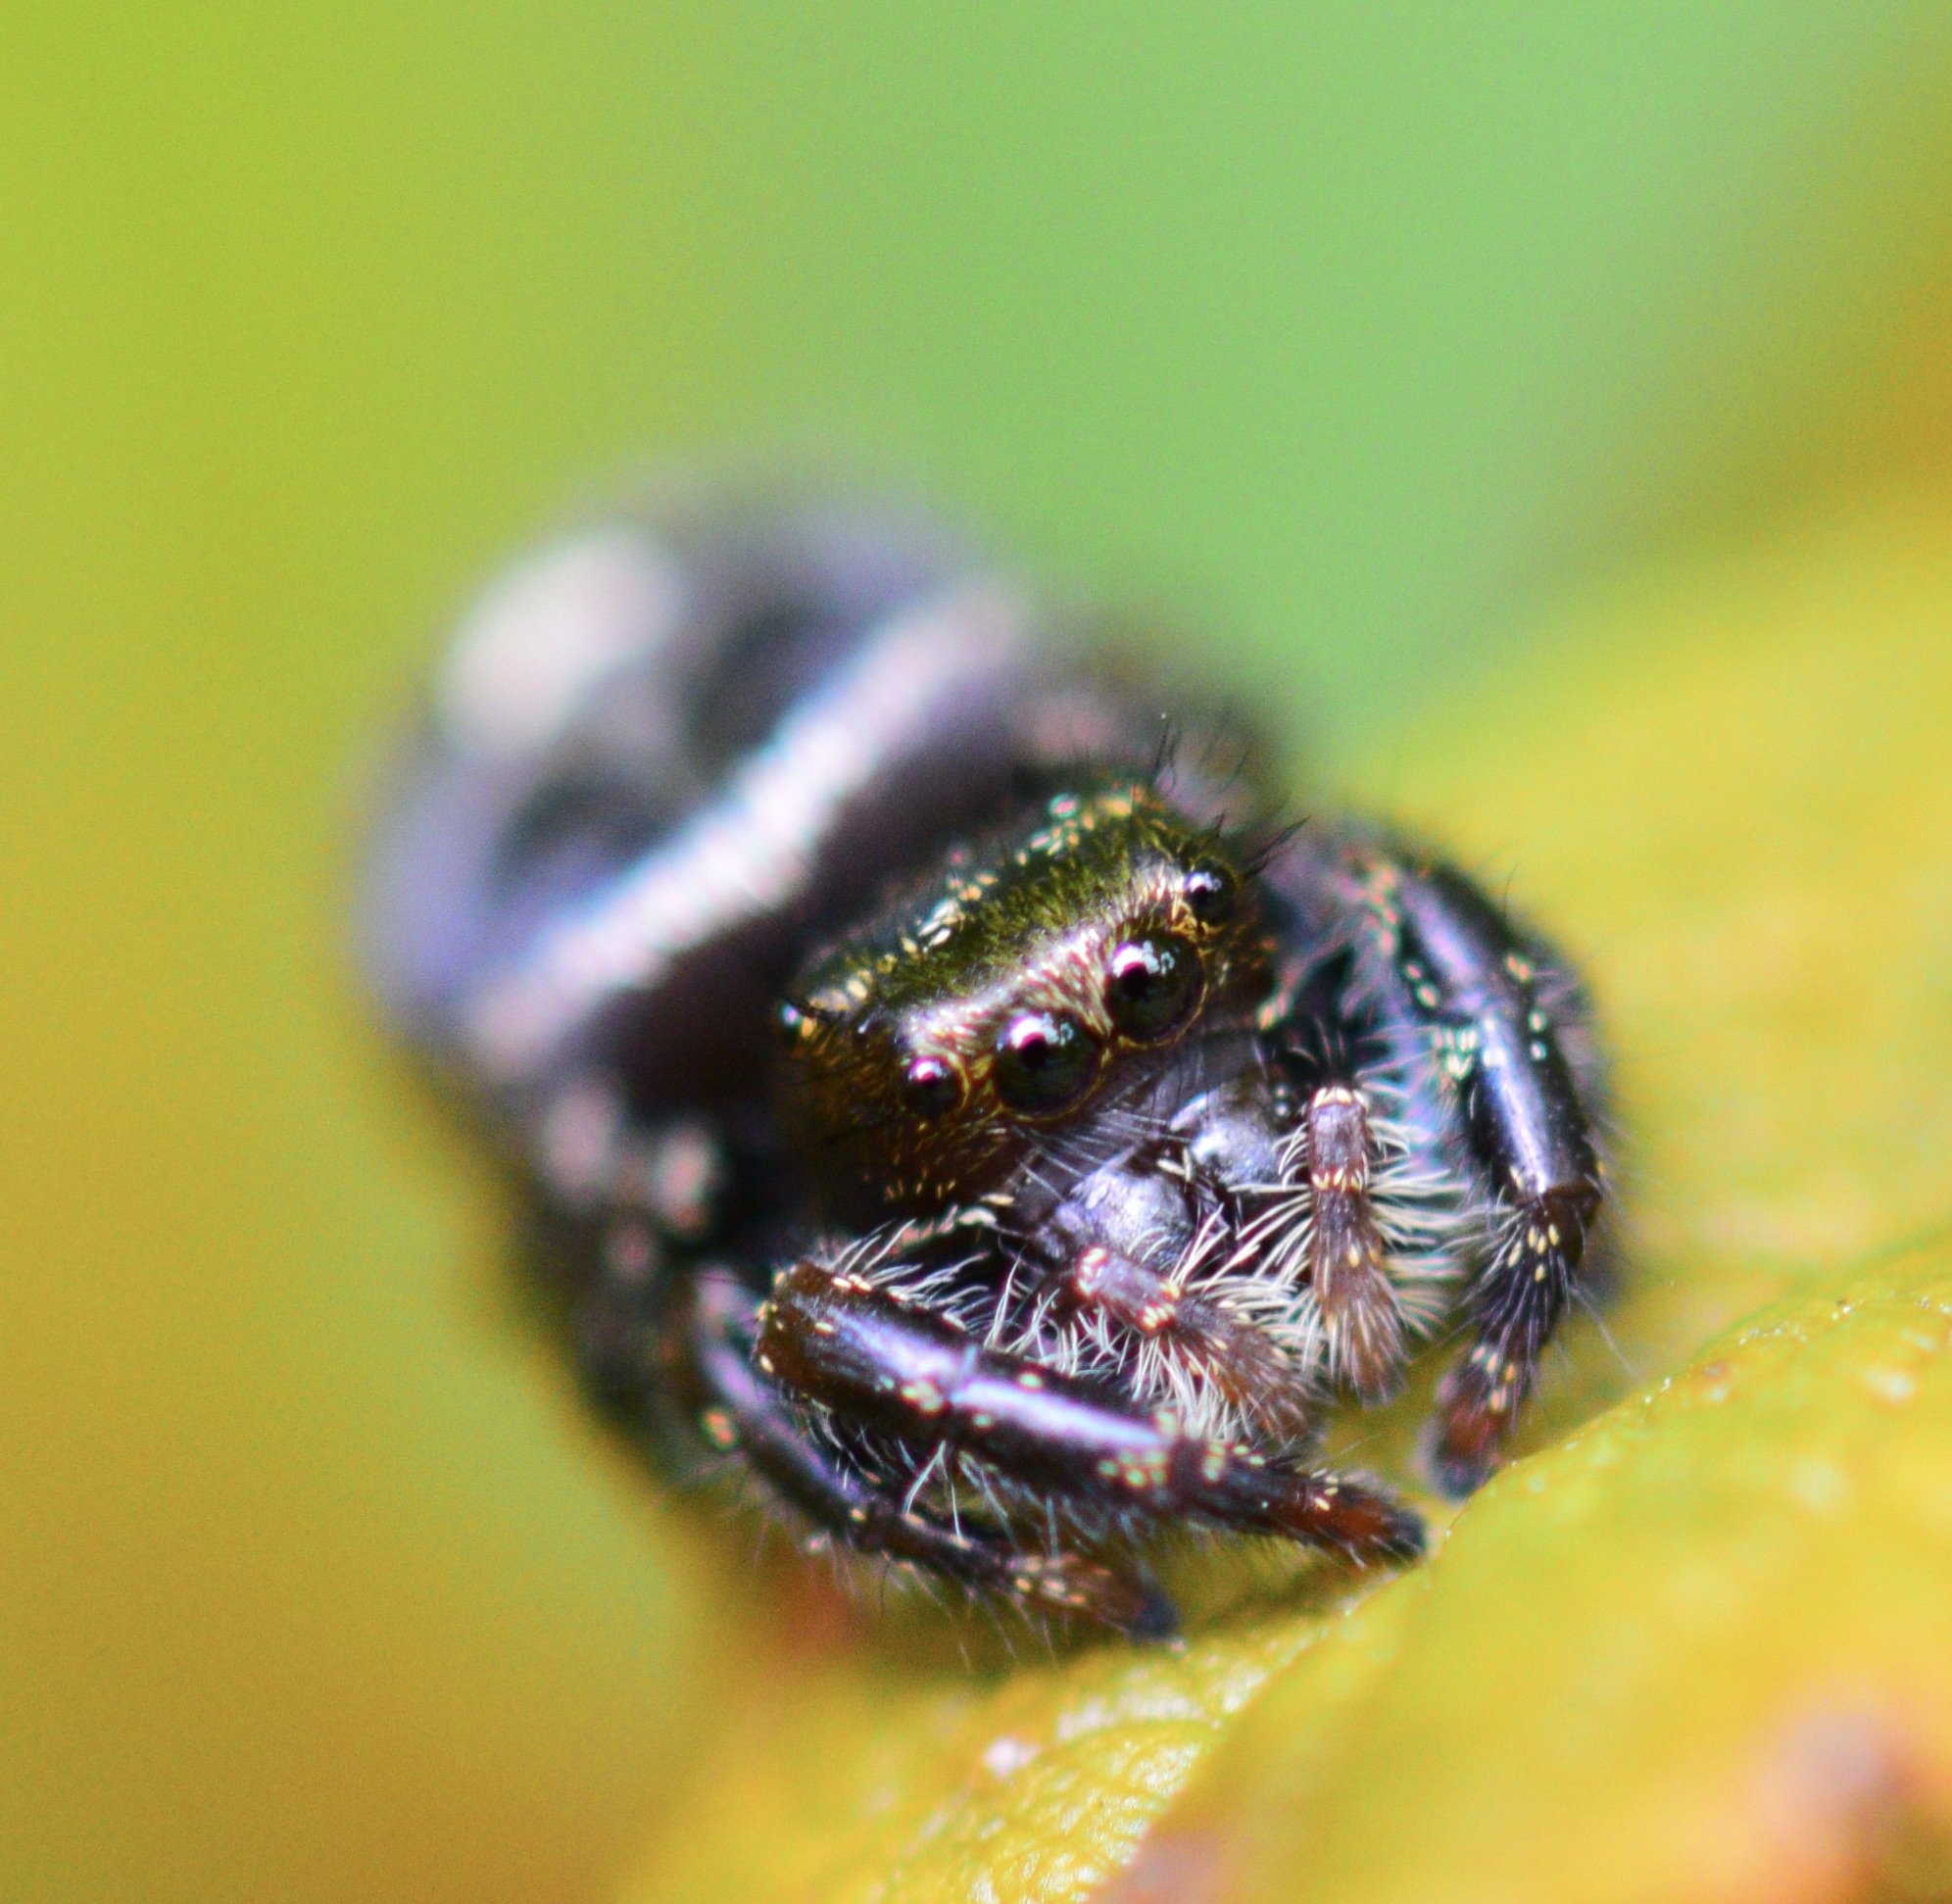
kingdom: Animalia
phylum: Arthropoda
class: Arachnida
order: Araneae
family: Salticidae
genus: Phidippus
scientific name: Phidippus audax
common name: Bold jumper
